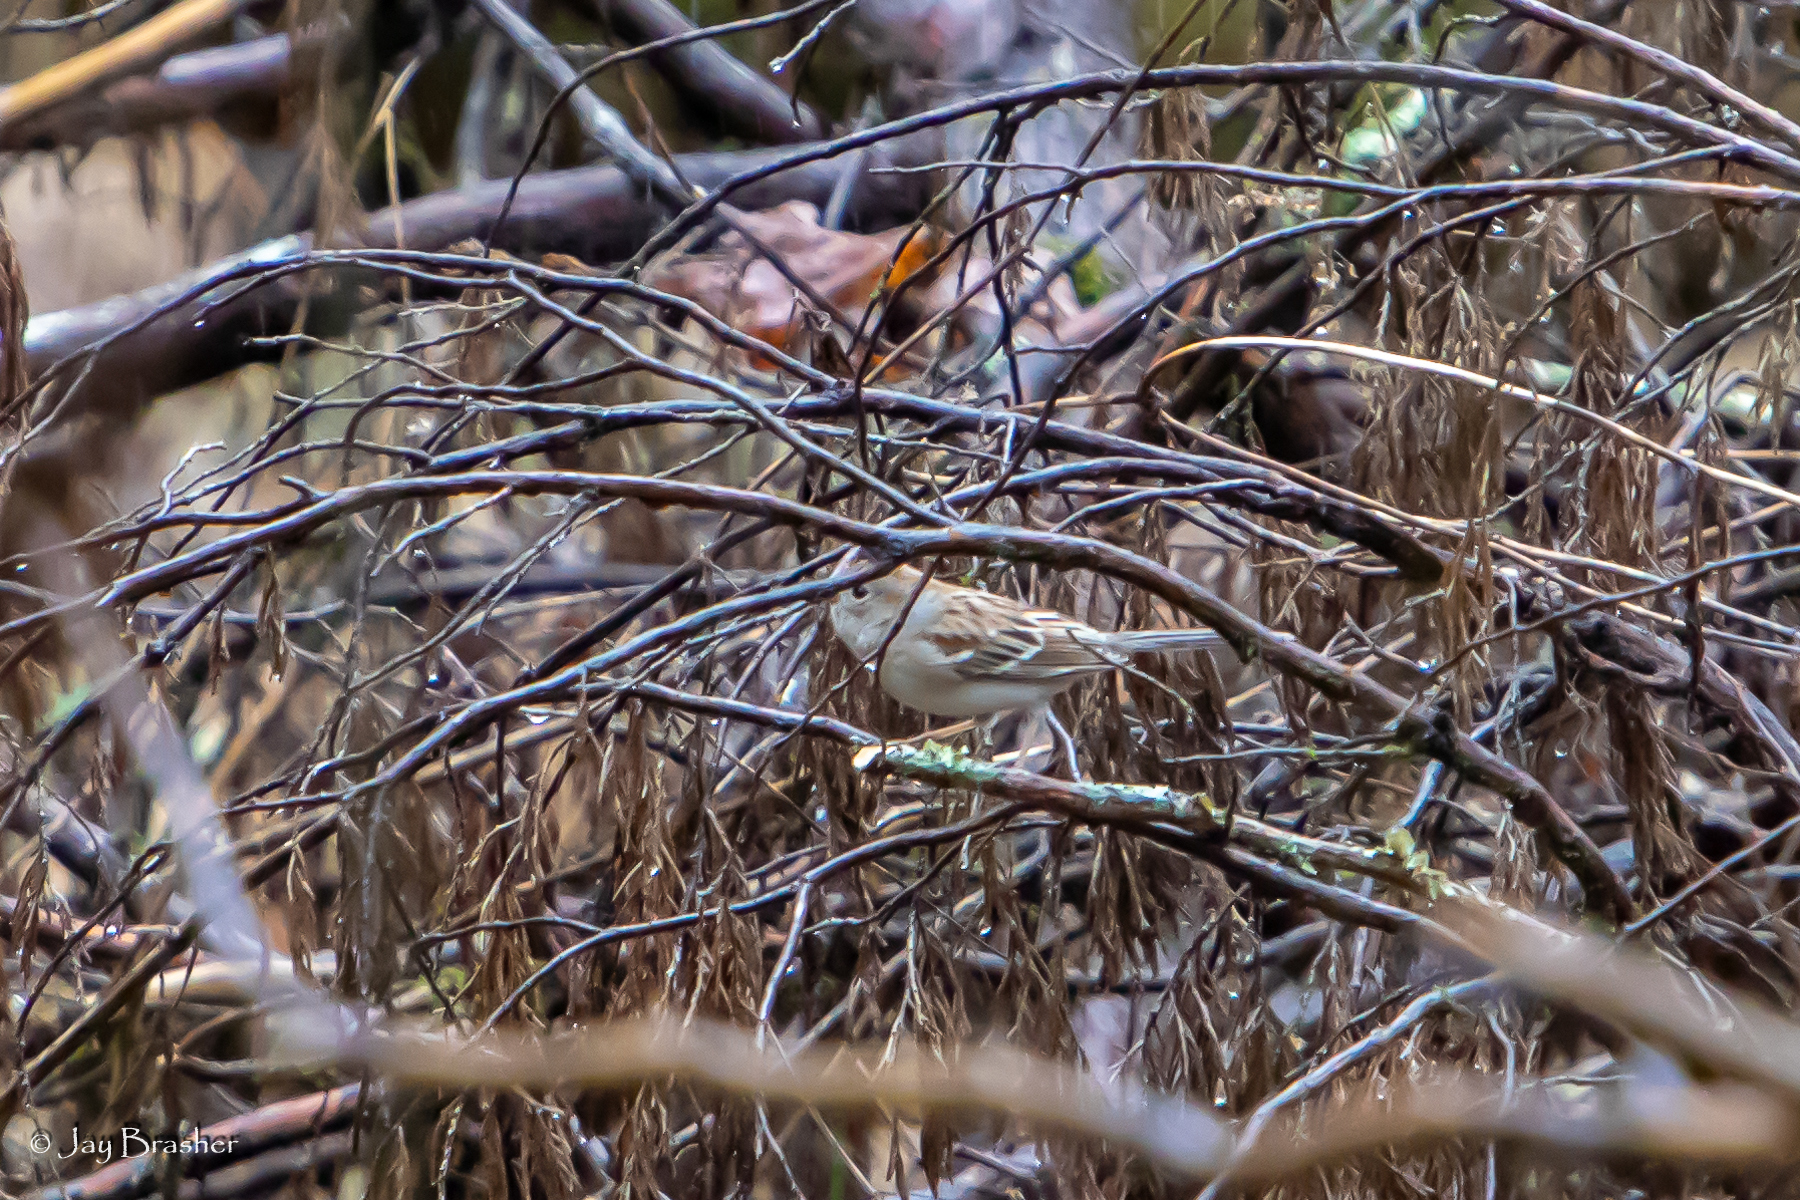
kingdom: Animalia
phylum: Chordata
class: Aves
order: Passeriformes
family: Passerellidae
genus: Spizella
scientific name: Spizella pusilla
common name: Field sparrow
